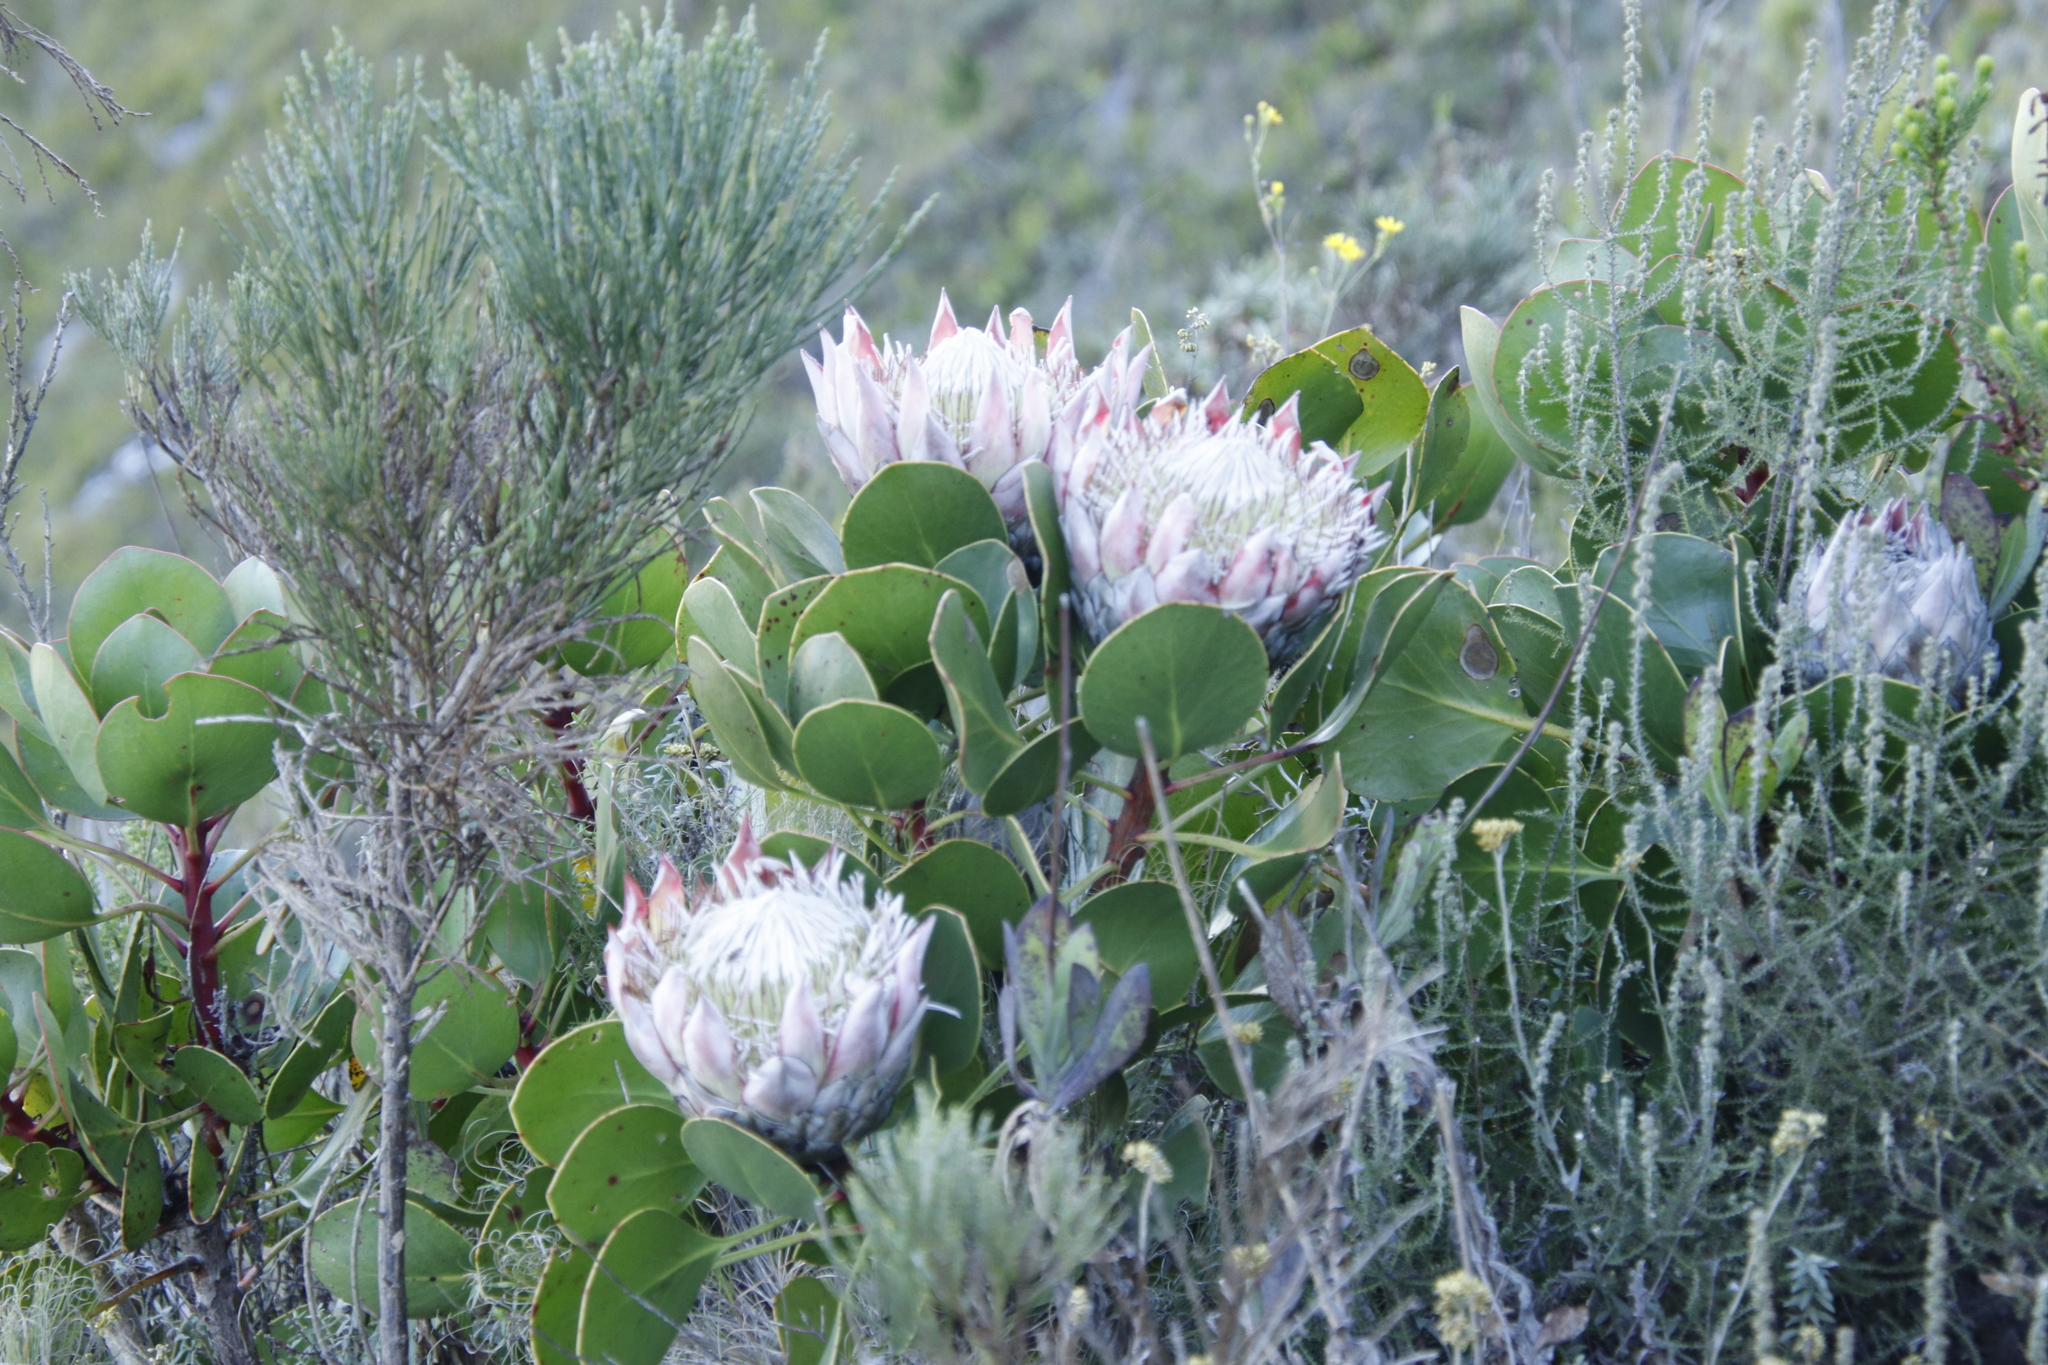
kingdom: Plantae
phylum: Tracheophyta
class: Magnoliopsida
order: Proteales
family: Proteaceae
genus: Protea
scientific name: Protea cynaroides
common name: King protea
